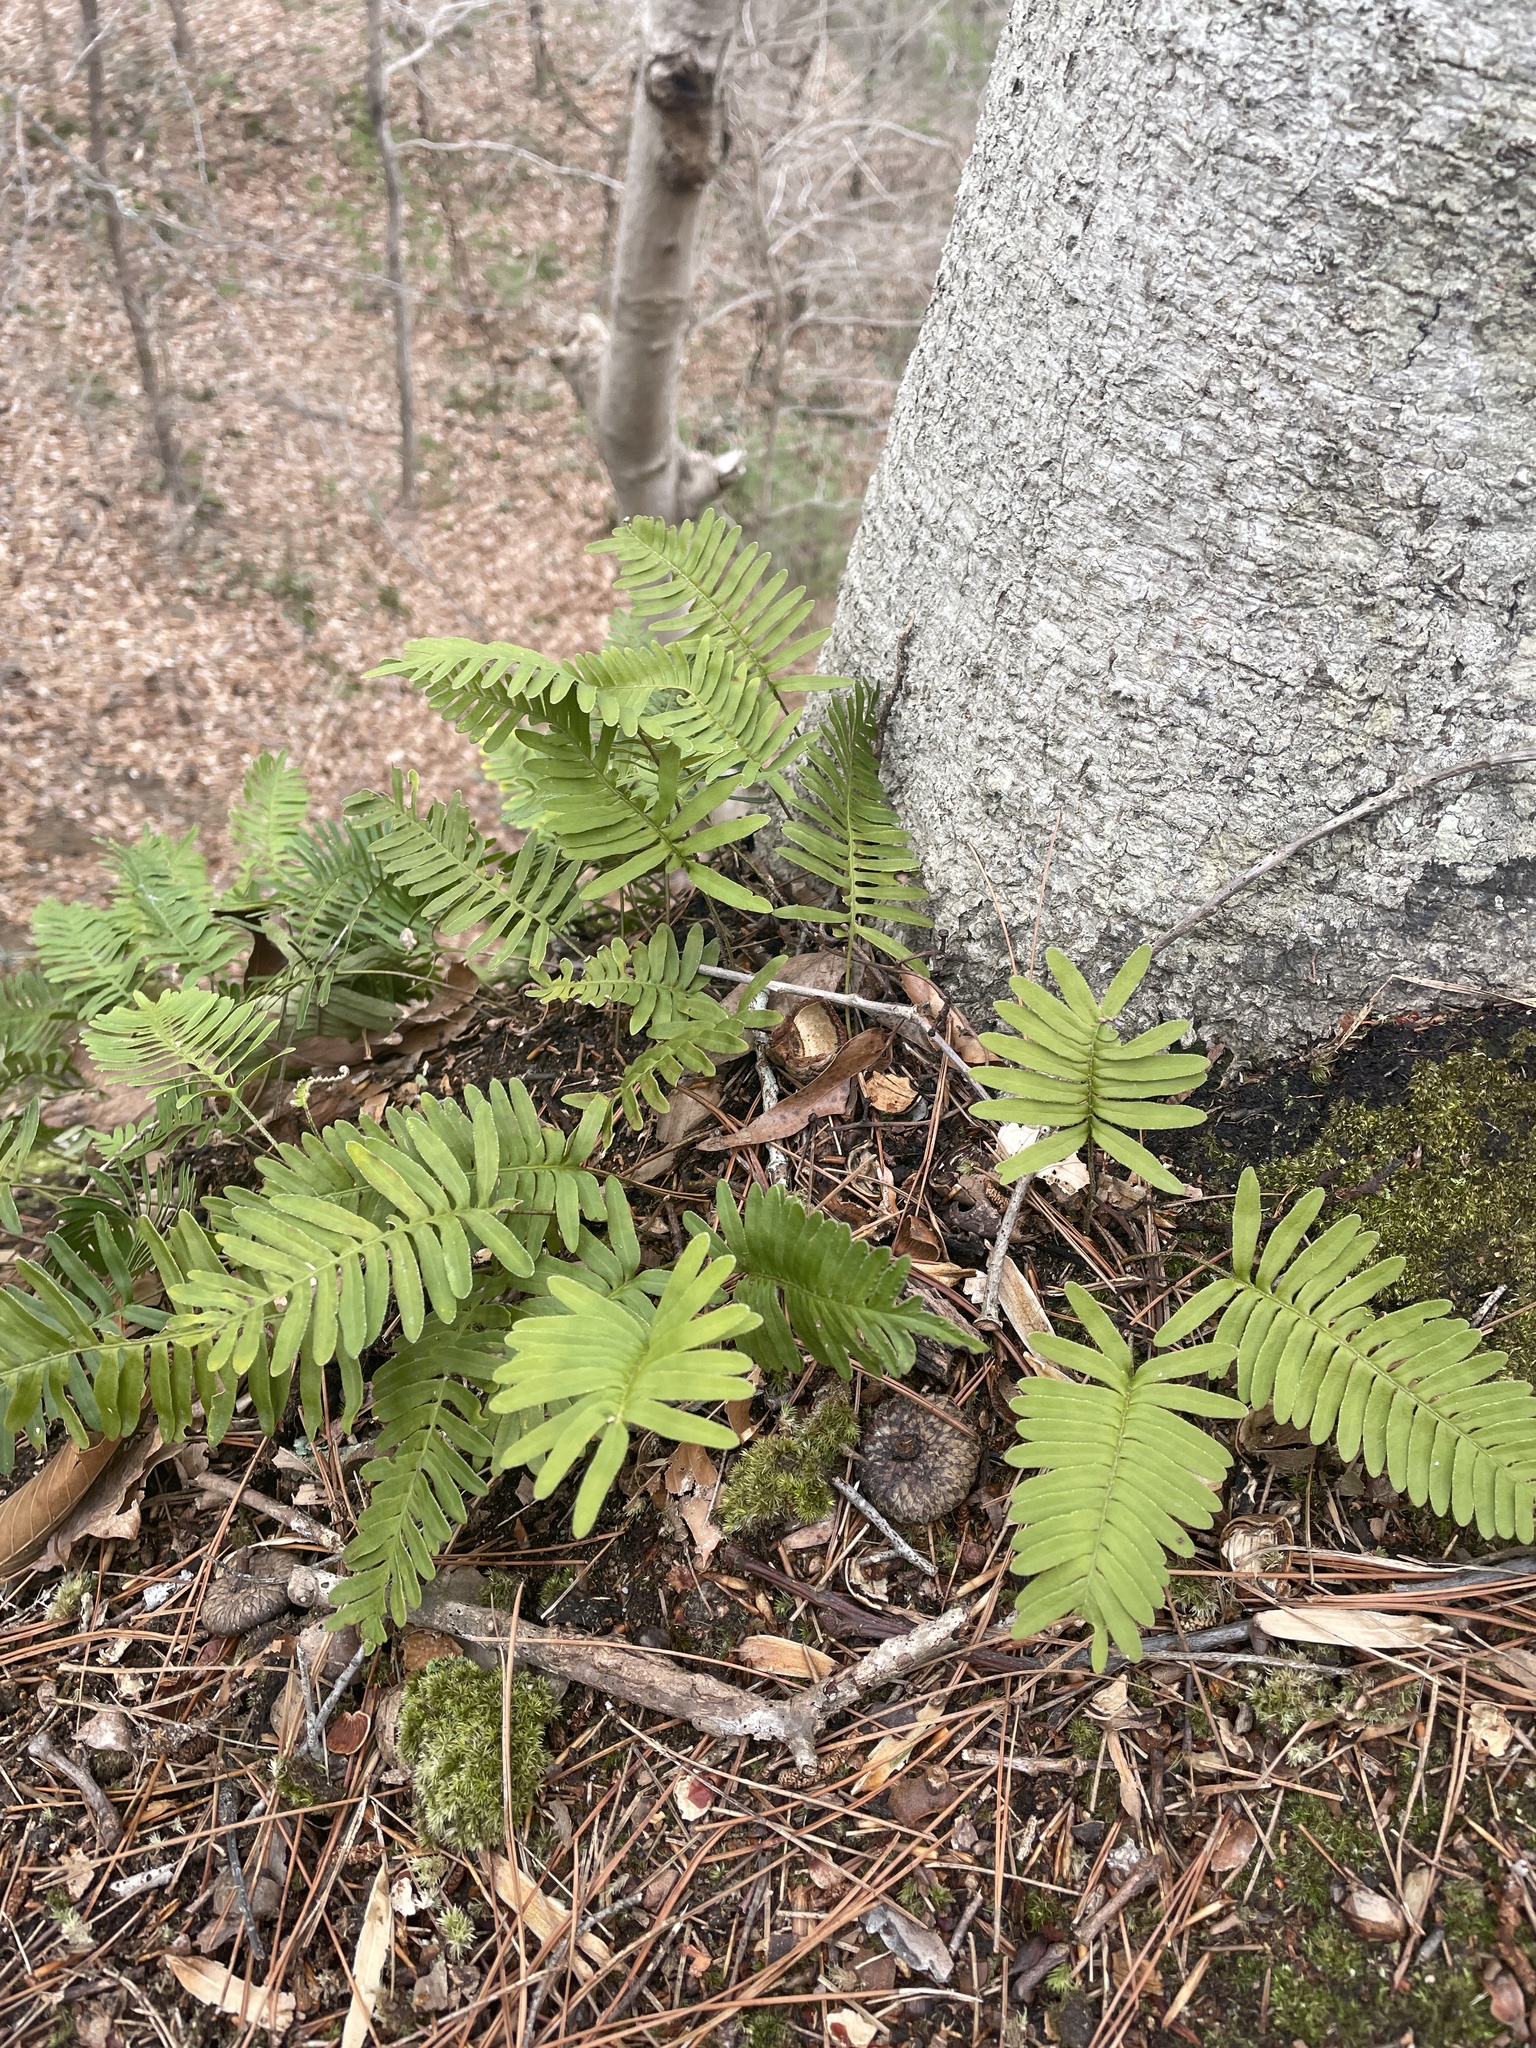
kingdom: Plantae
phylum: Tracheophyta
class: Polypodiopsida
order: Polypodiales
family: Polypodiaceae
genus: Pleopeltis
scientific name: Pleopeltis michauxiana
